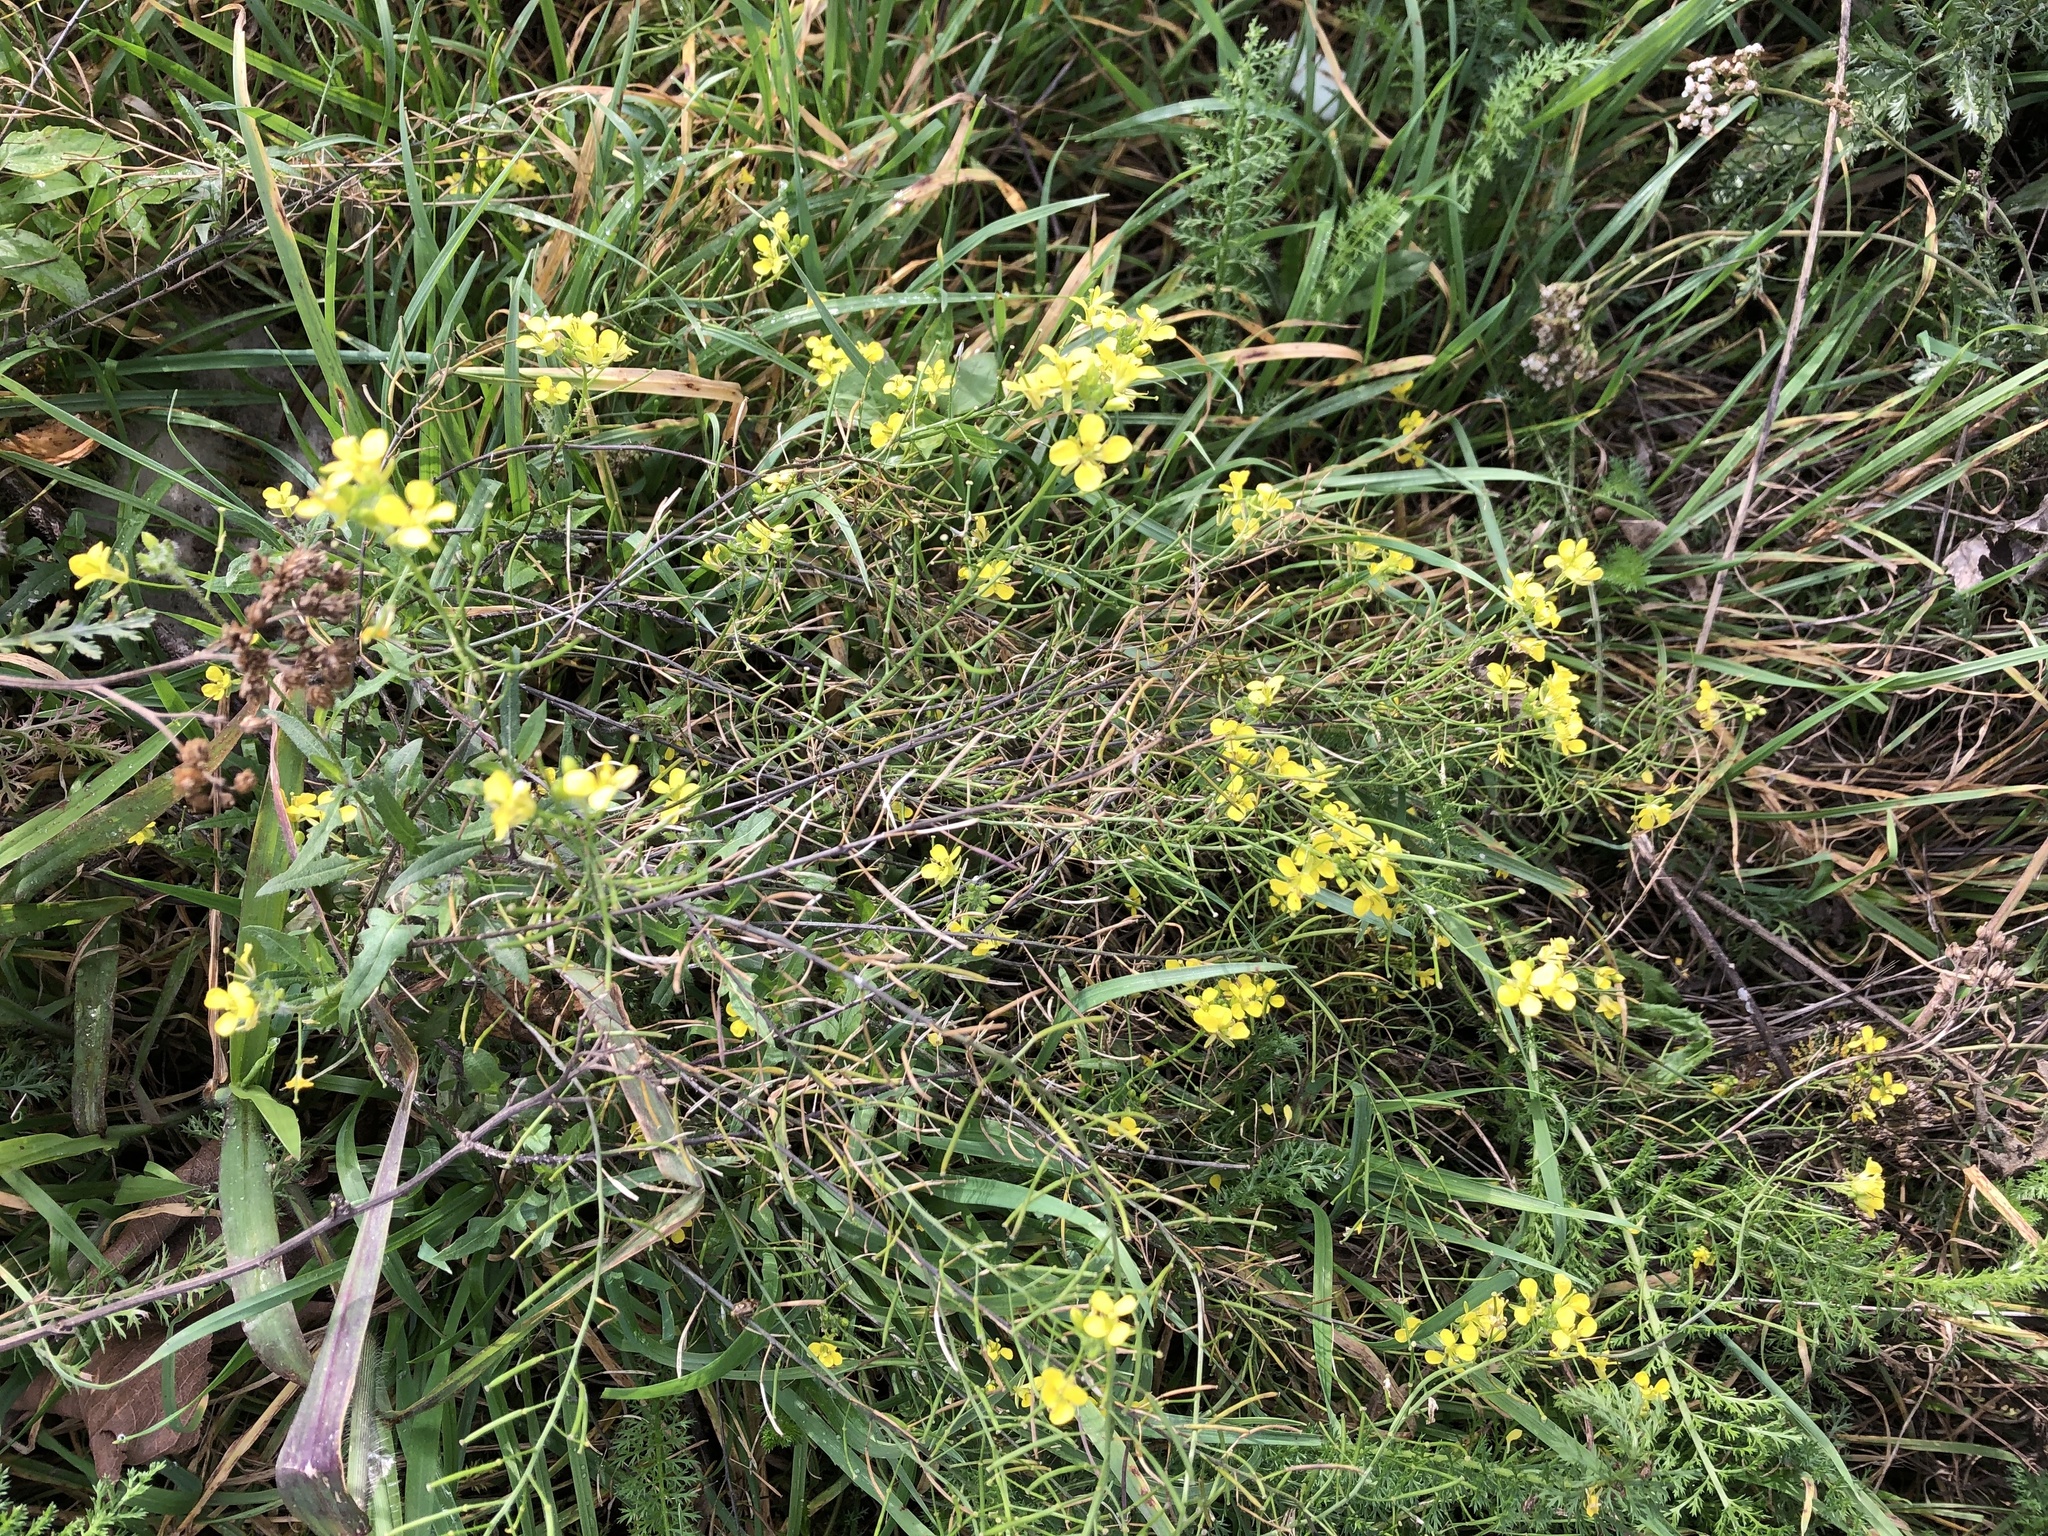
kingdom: Plantae
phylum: Tracheophyta
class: Magnoliopsida
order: Brassicales
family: Brassicaceae
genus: Sisymbrium
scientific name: Sisymbrium loeselii
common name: False london-rocket
